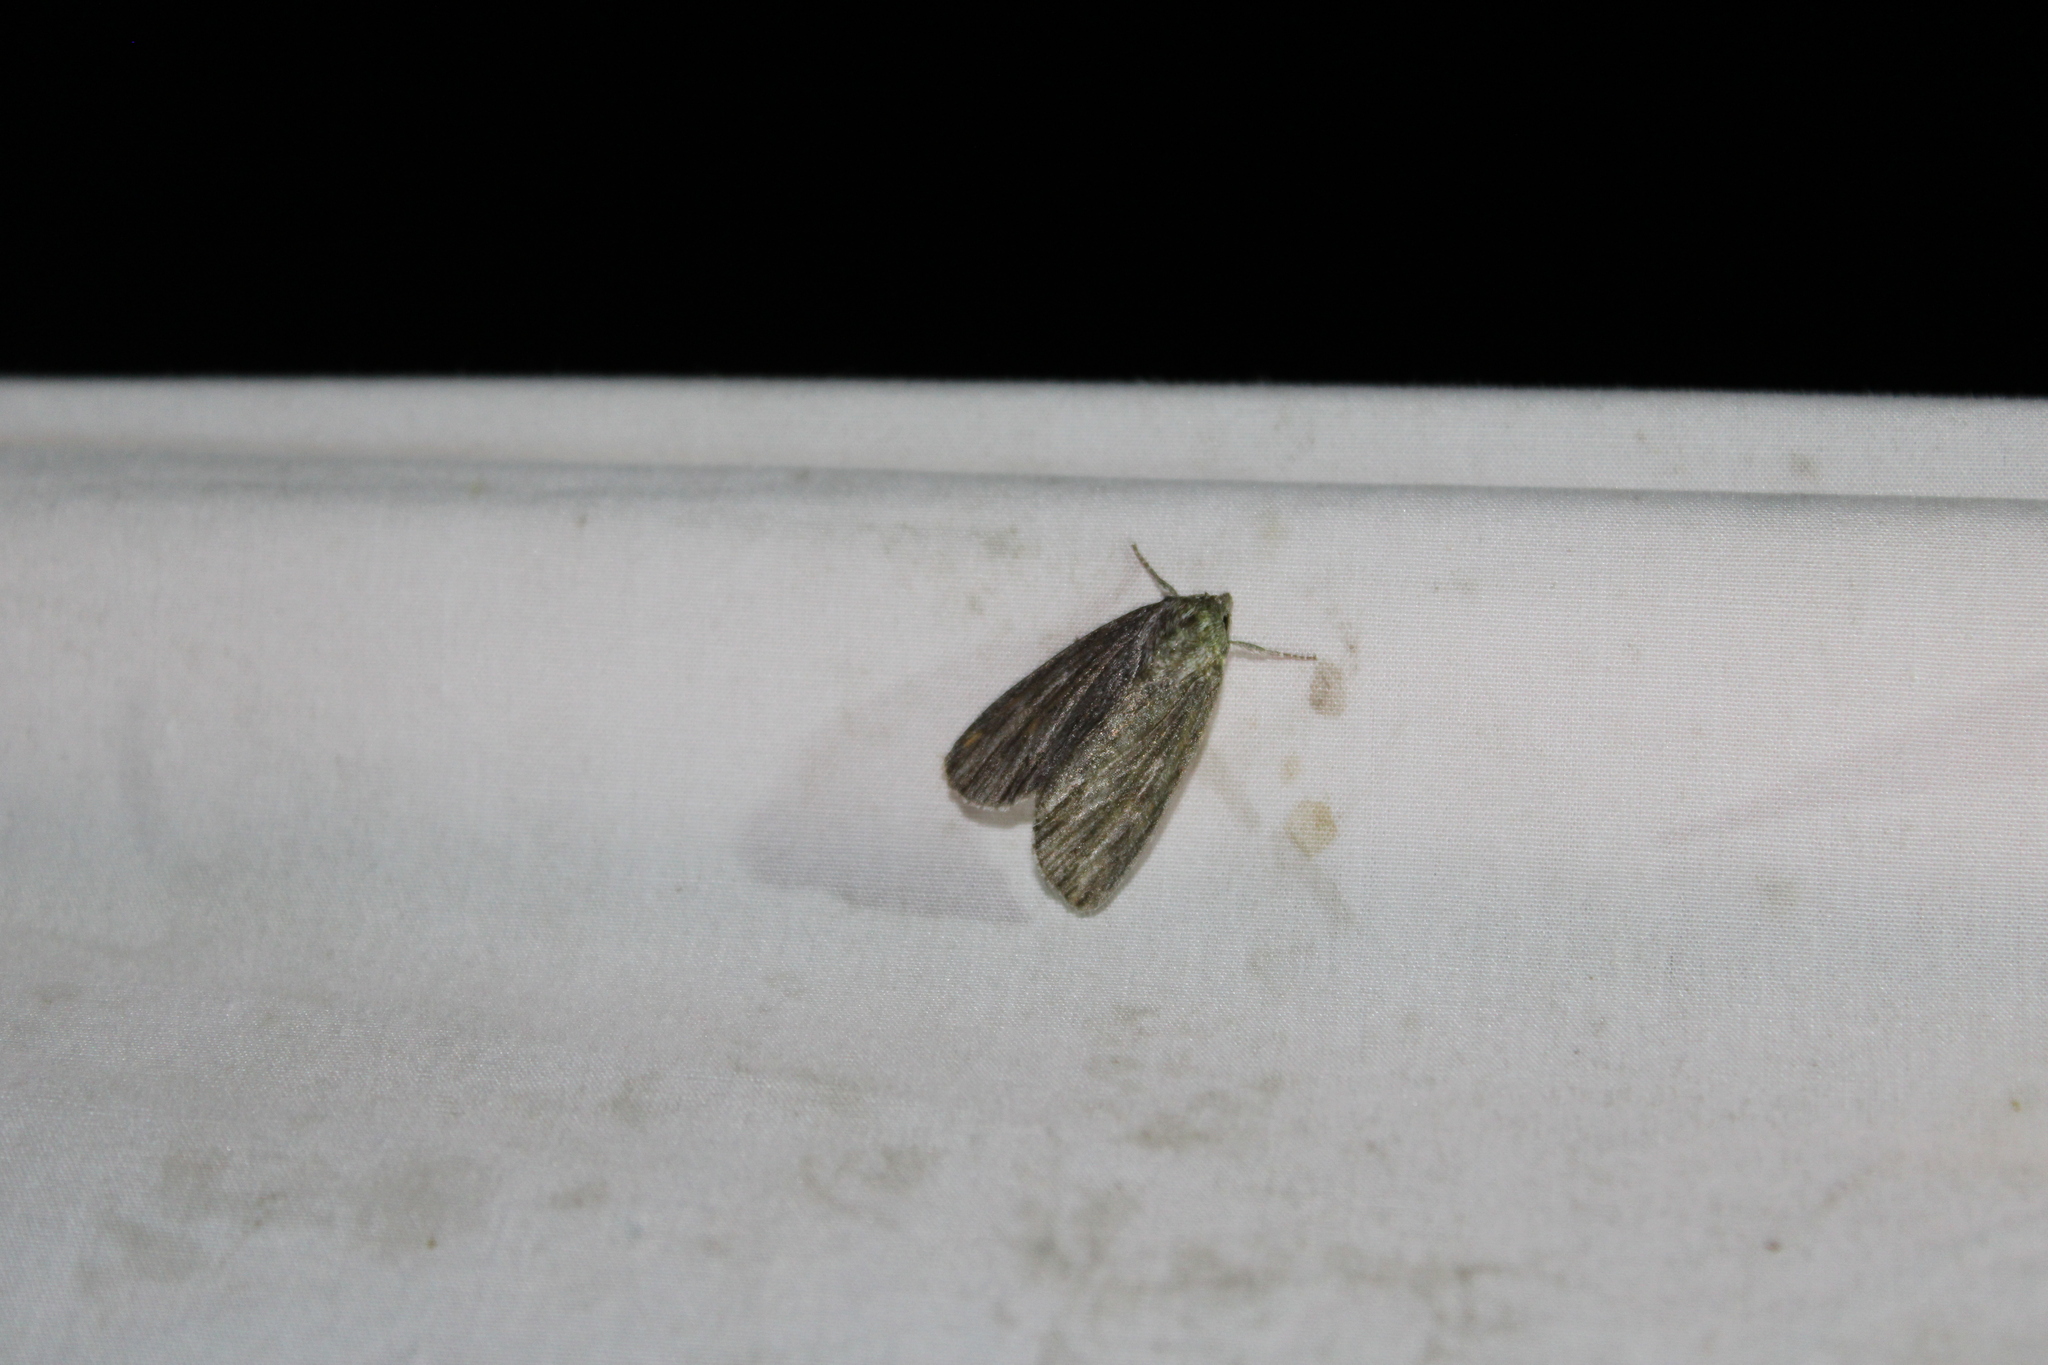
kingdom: Animalia
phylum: Arthropoda
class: Insecta
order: Lepidoptera
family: Noctuidae
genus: Acronicta
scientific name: Acronicta lithospila
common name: Streaked dagger
